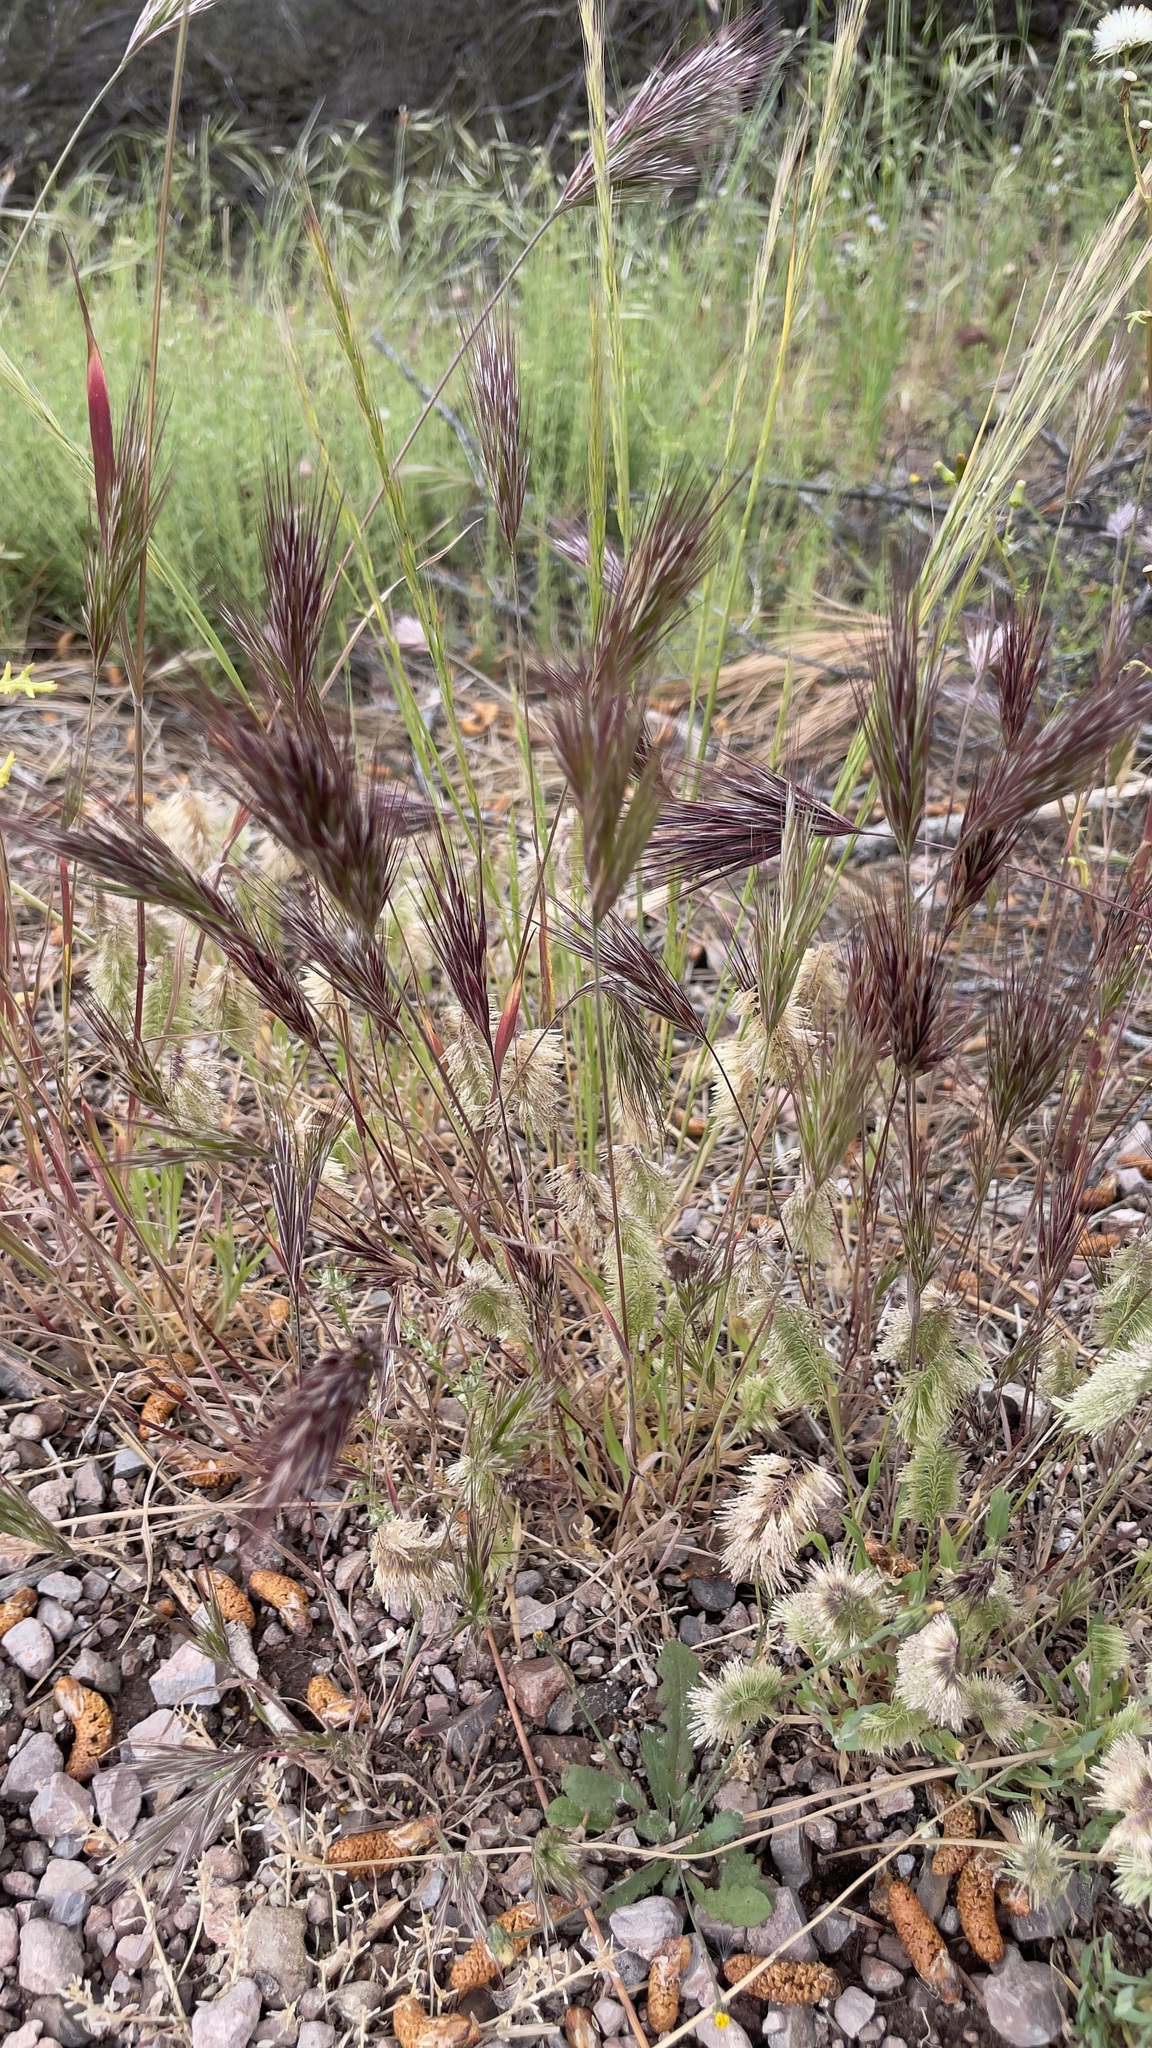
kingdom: Plantae
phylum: Tracheophyta
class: Liliopsida
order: Poales
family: Poaceae
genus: Bromus
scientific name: Bromus rubens
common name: Red brome
